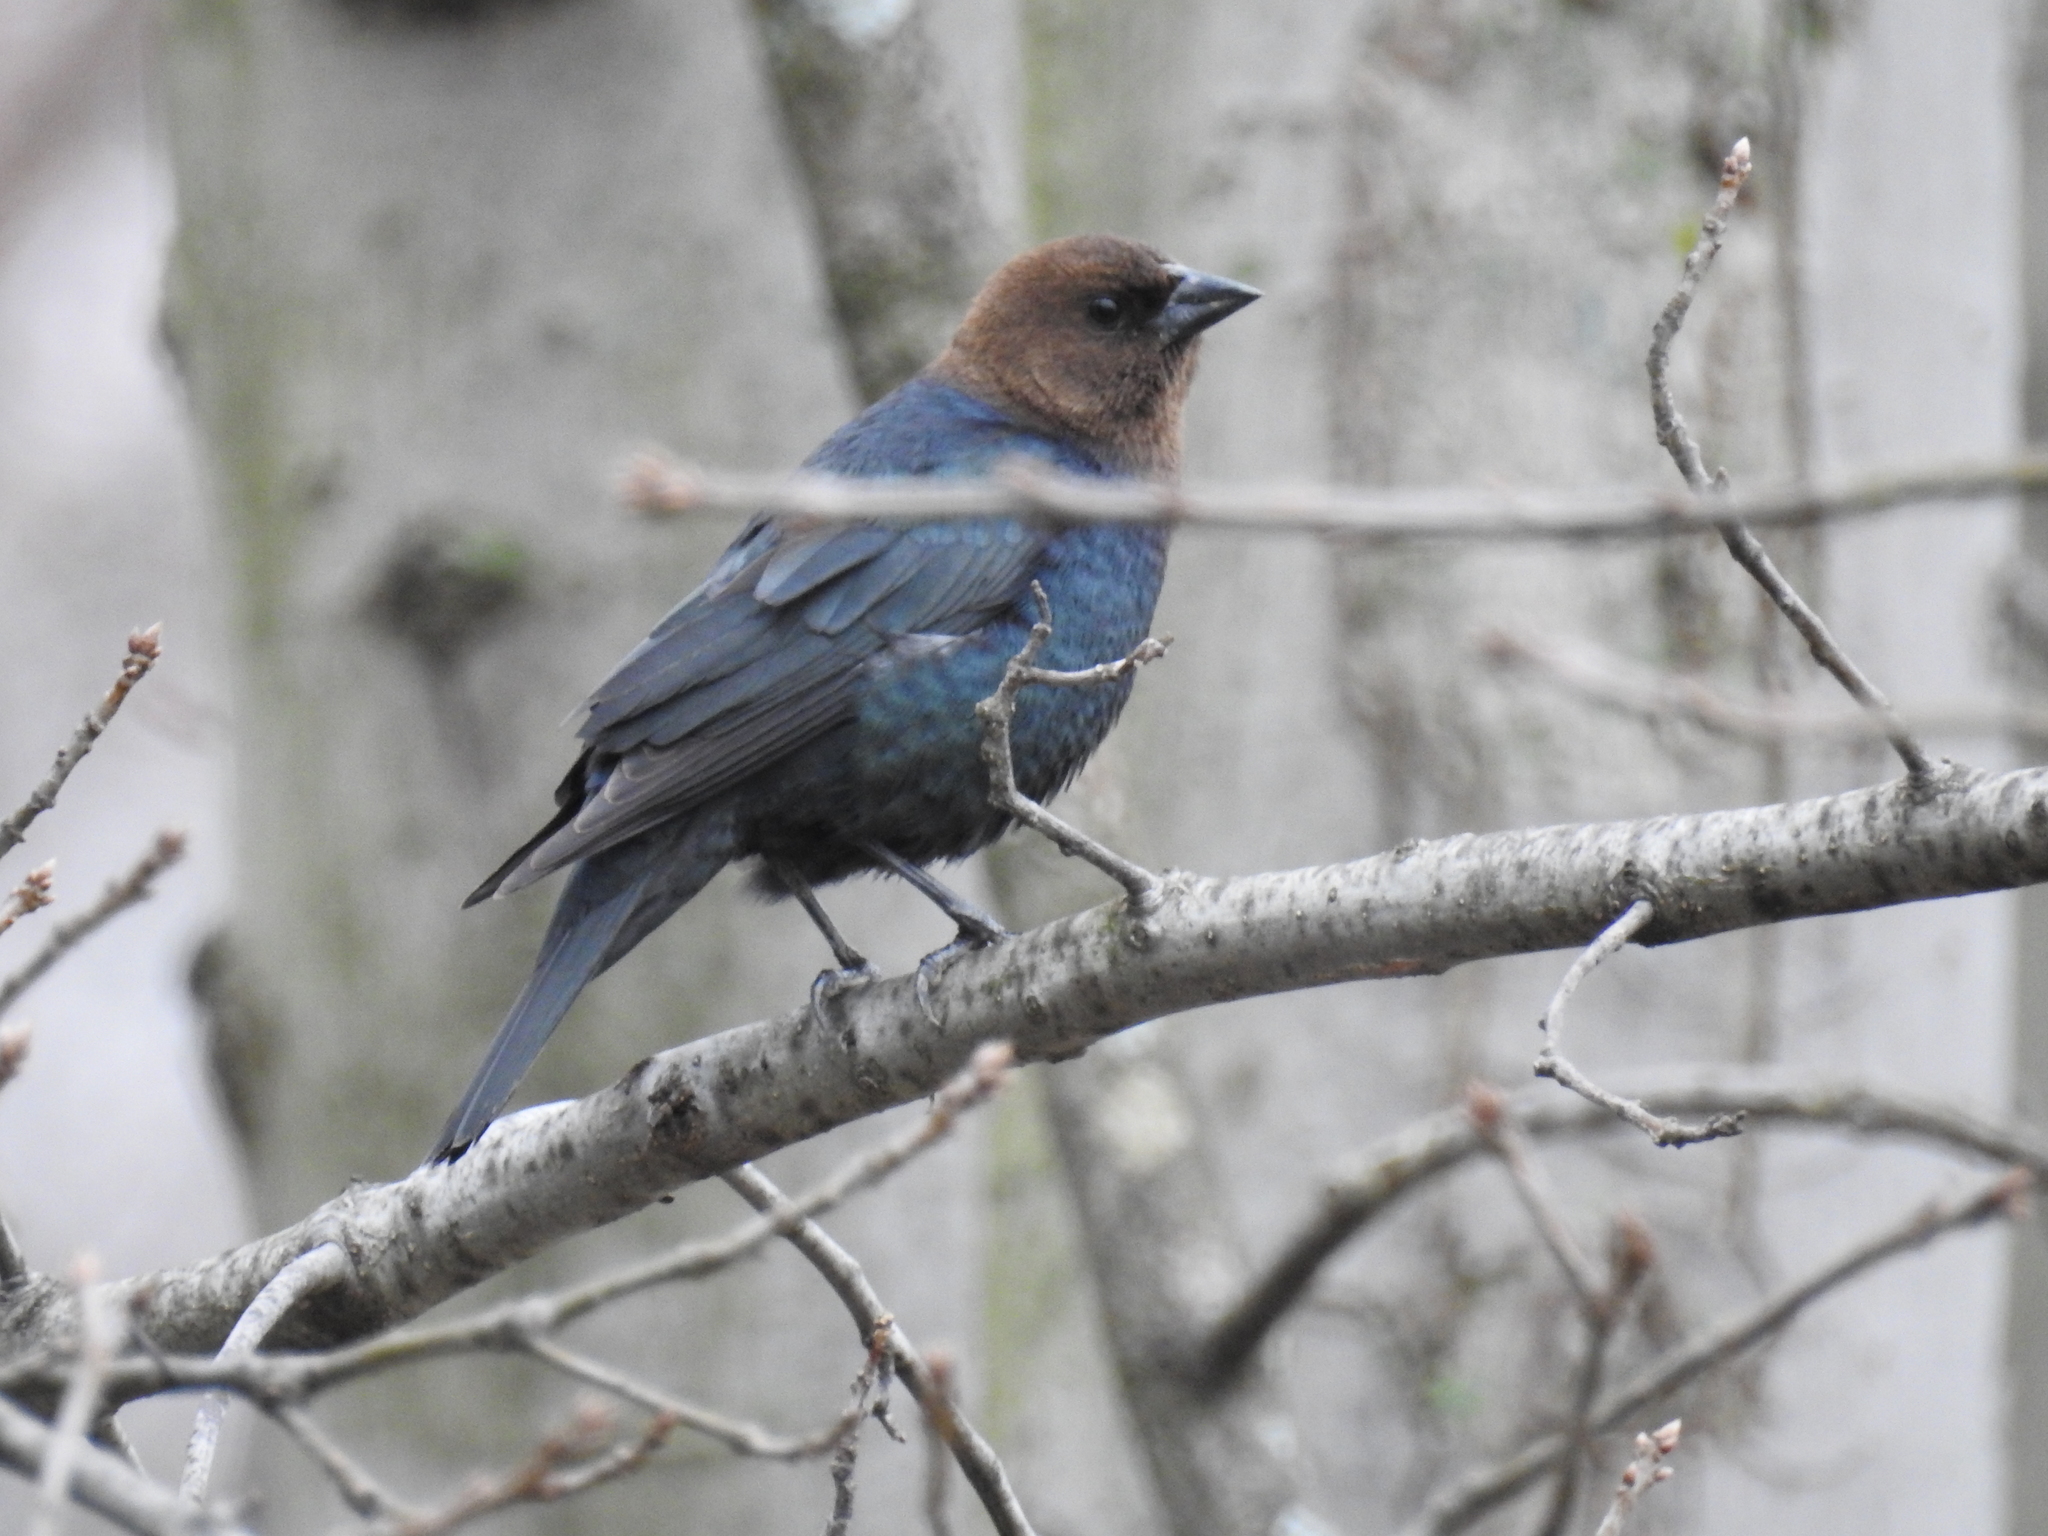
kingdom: Animalia
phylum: Chordata
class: Aves
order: Passeriformes
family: Icteridae
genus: Molothrus
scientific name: Molothrus ater
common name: Brown-headed cowbird
